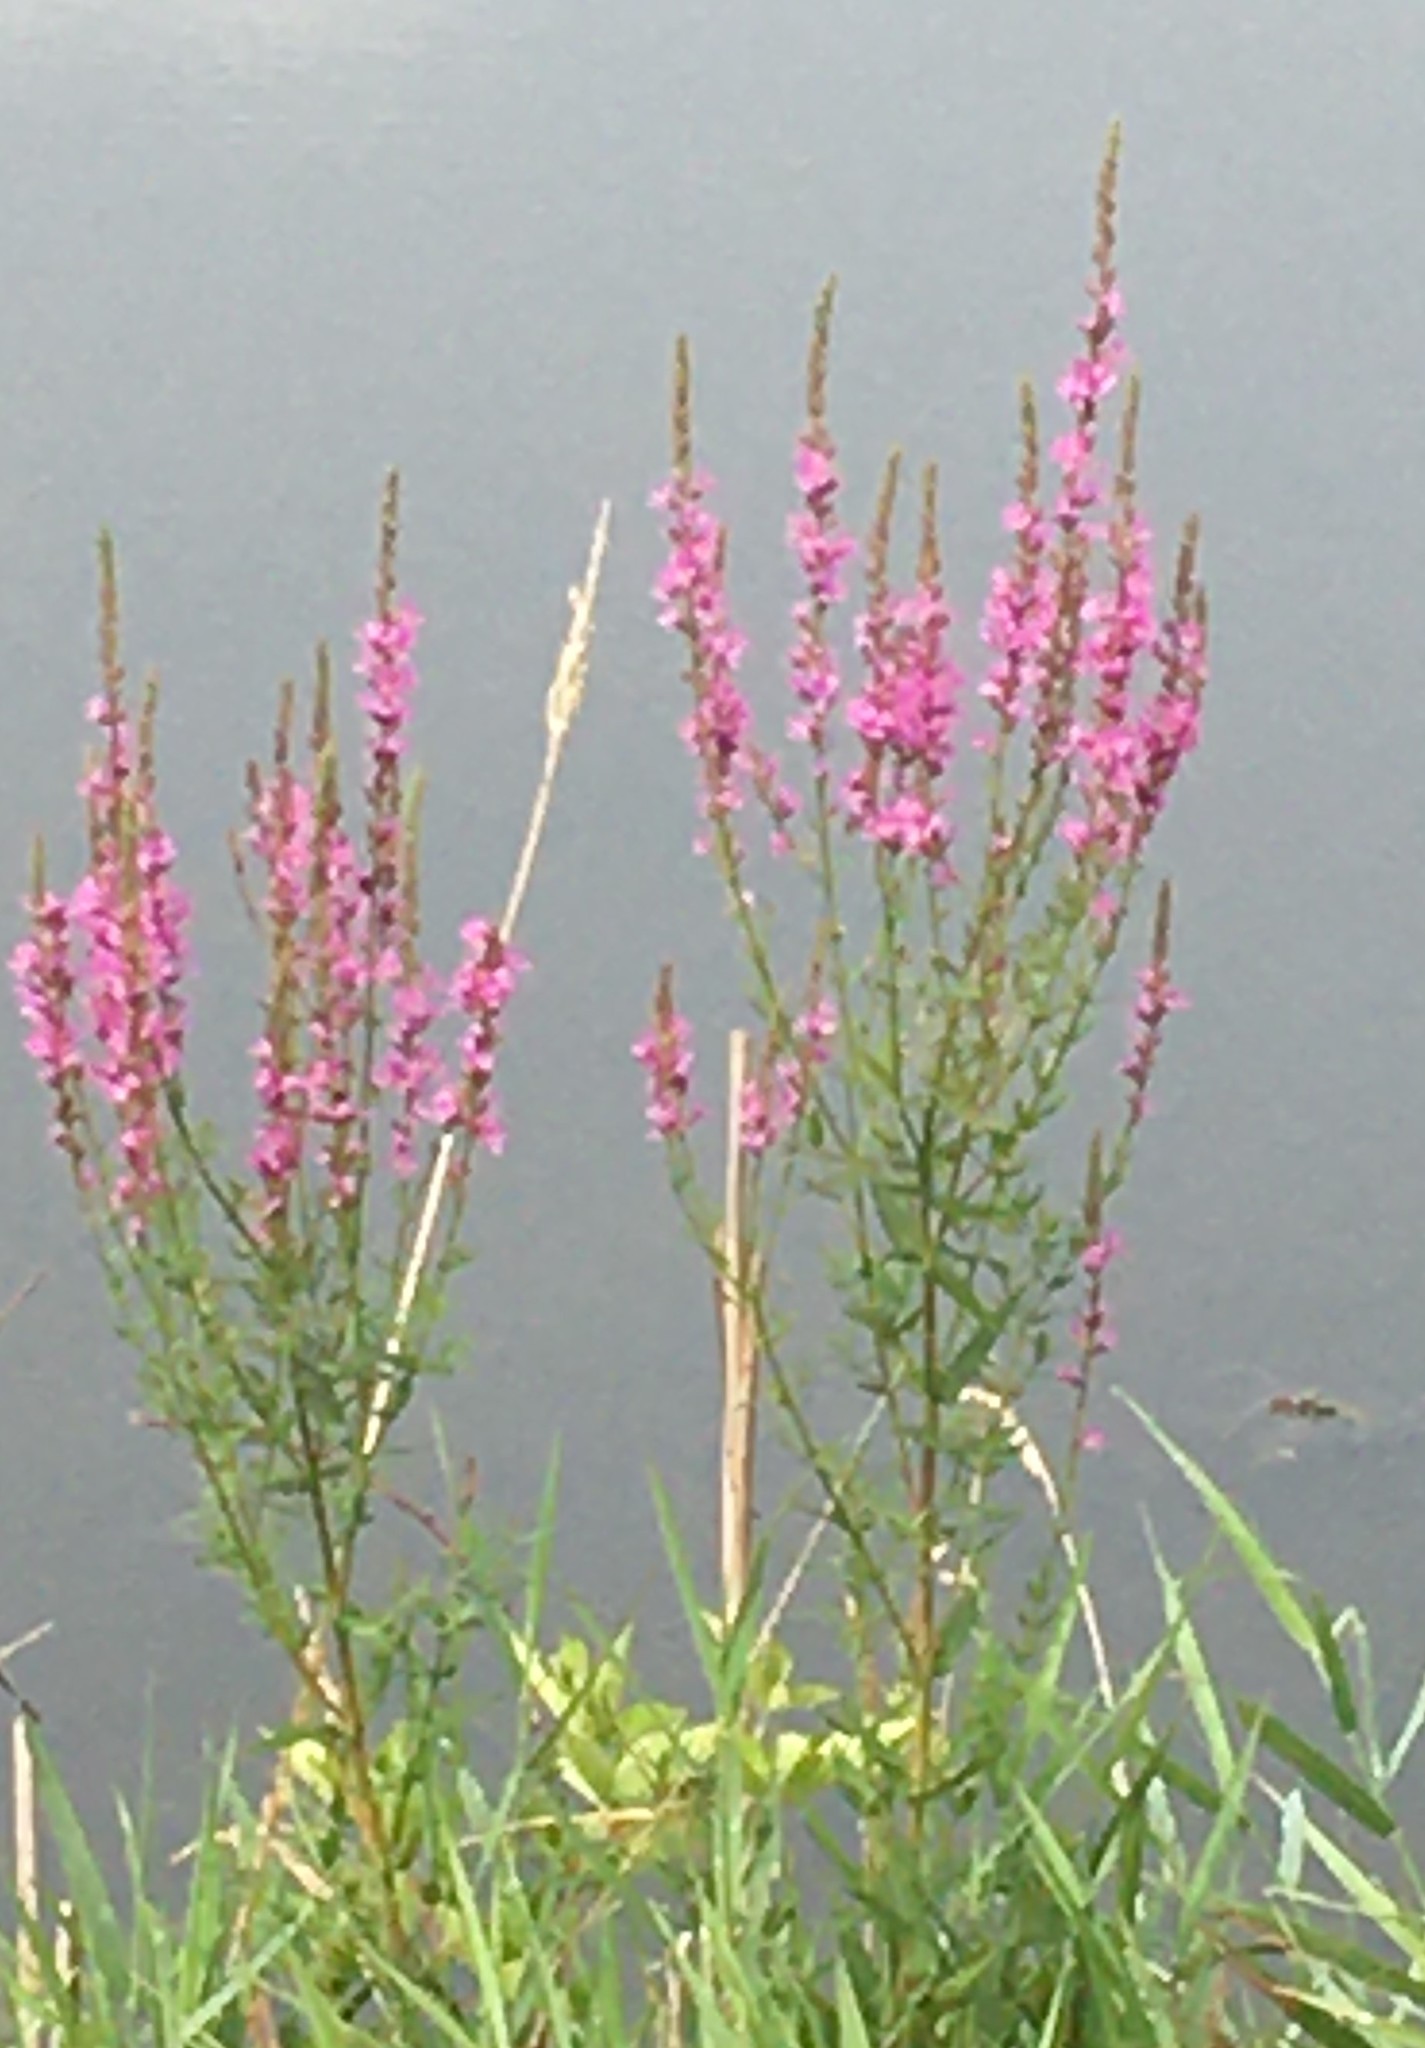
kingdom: Plantae
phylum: Tracheophyta
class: Magnoliopsida
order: Myrtales
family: Lythraceae
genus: Lythrum
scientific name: Lythrum salicaria
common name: Purple loosestrife
